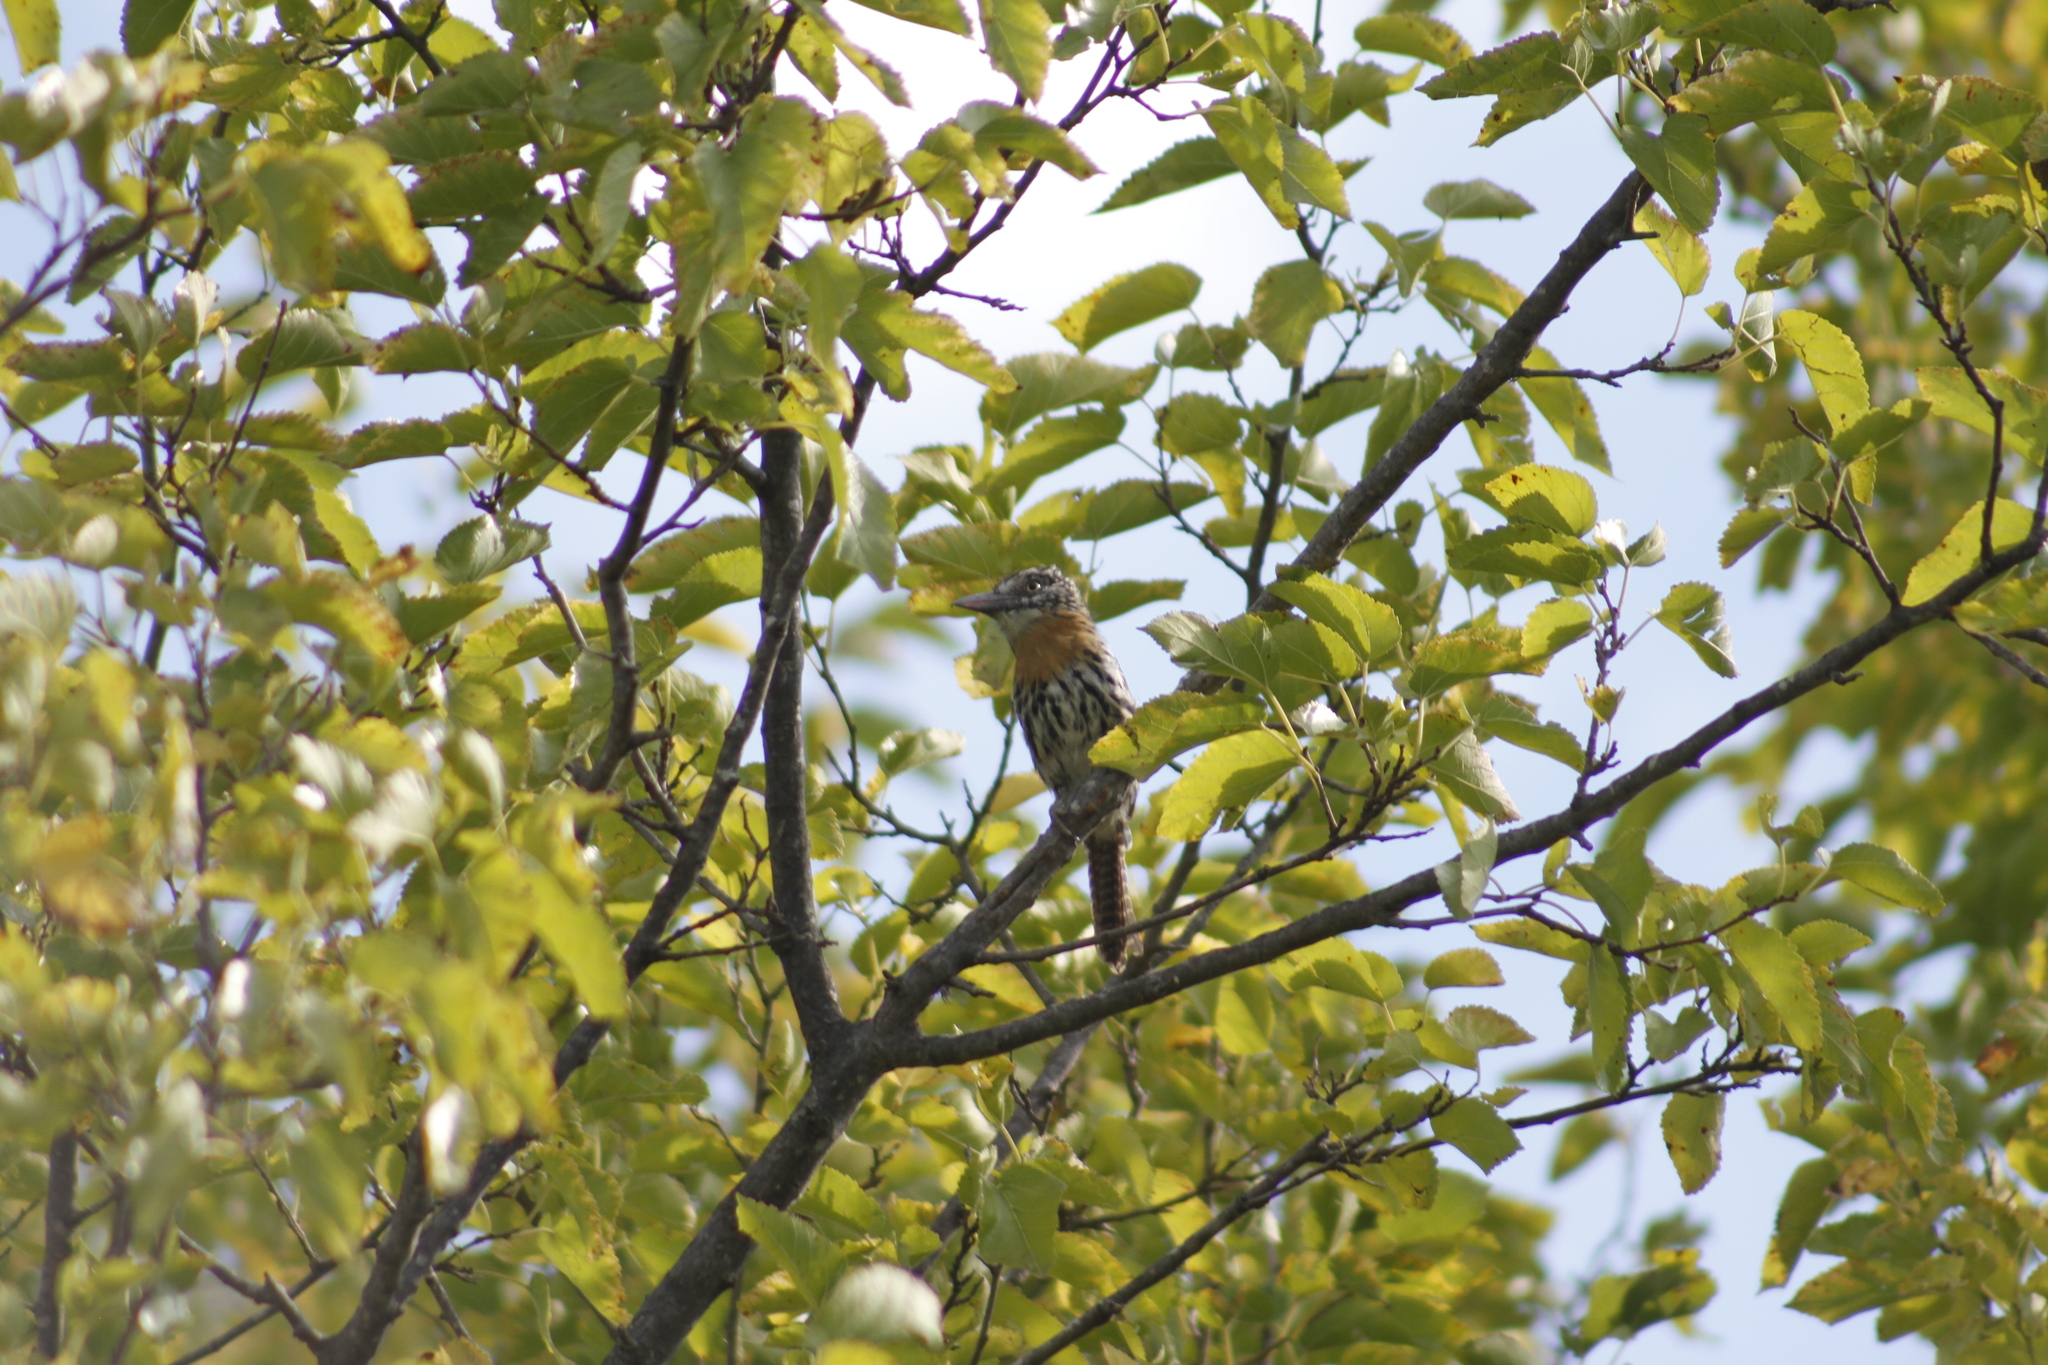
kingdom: Animalia
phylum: Chordata
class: Aves
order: Piciformes
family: Bucconidae
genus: Nystalus
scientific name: Nystalus maculatus
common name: Caatinga puffbird
